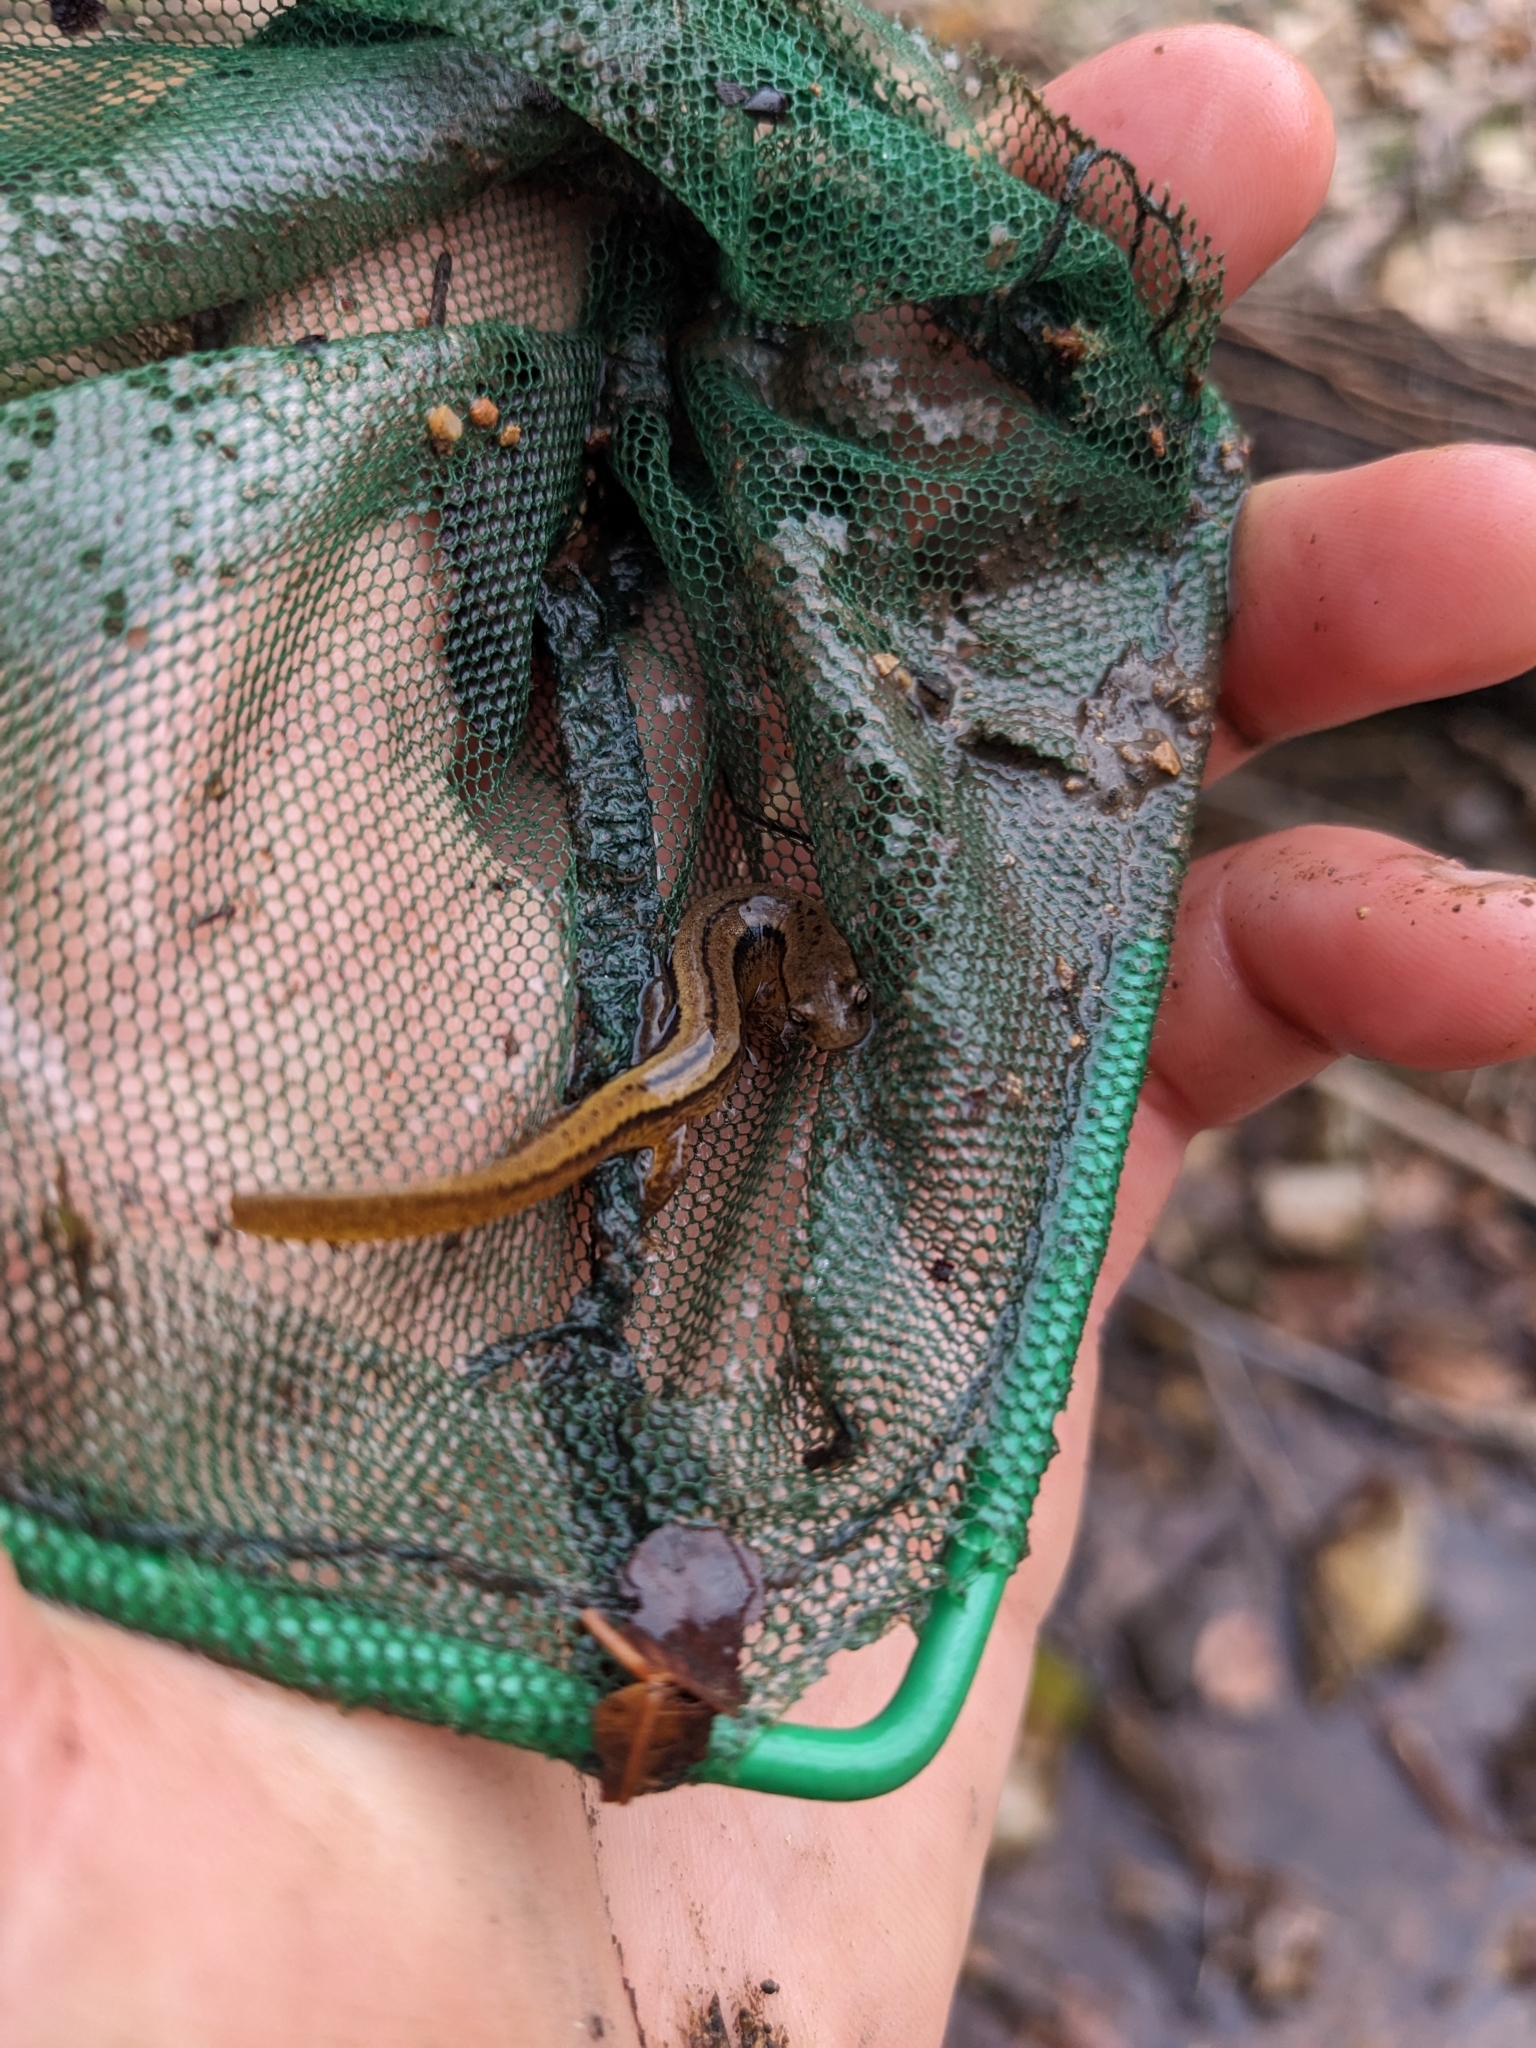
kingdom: Animalia
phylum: Chordata
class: Amphibia
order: Caudata
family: Plethodontidae
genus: Eurycea
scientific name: Eurycea cirrigera
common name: Southern two-lined salamander
